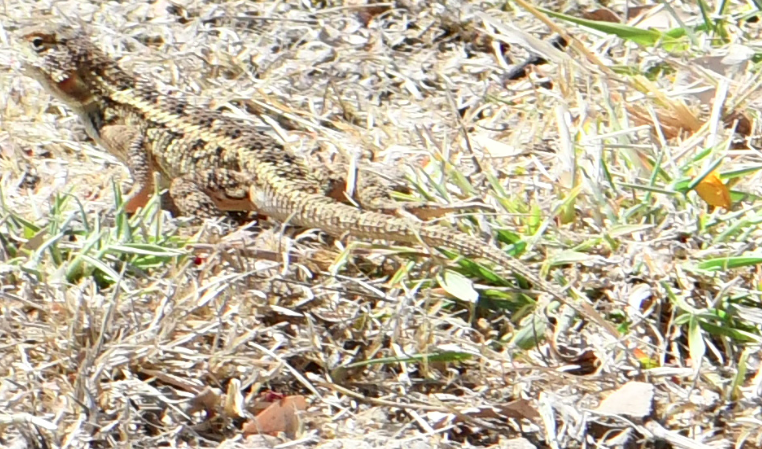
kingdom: Animalia
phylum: Chordata
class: Squamata
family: Phrynosomatidae
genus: Sceloporus
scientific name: Sceloporus spinosus
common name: Blue-spotted spiny lizard [caeruleopunctatus]
